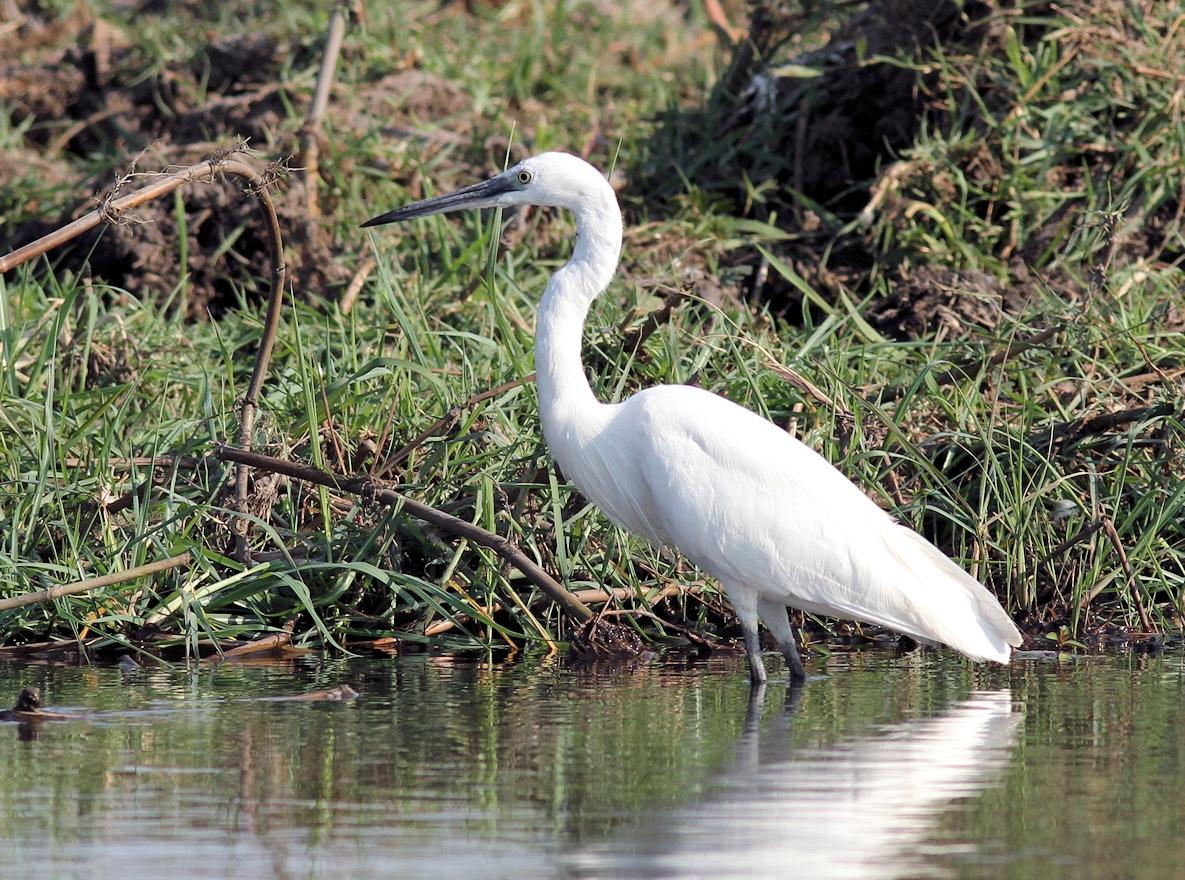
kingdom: Animalia
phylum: Chordata
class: Aves
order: Pelecaniformes
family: Ardeidae
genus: Egretta
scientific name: Egretta garzetta
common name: Little egret
